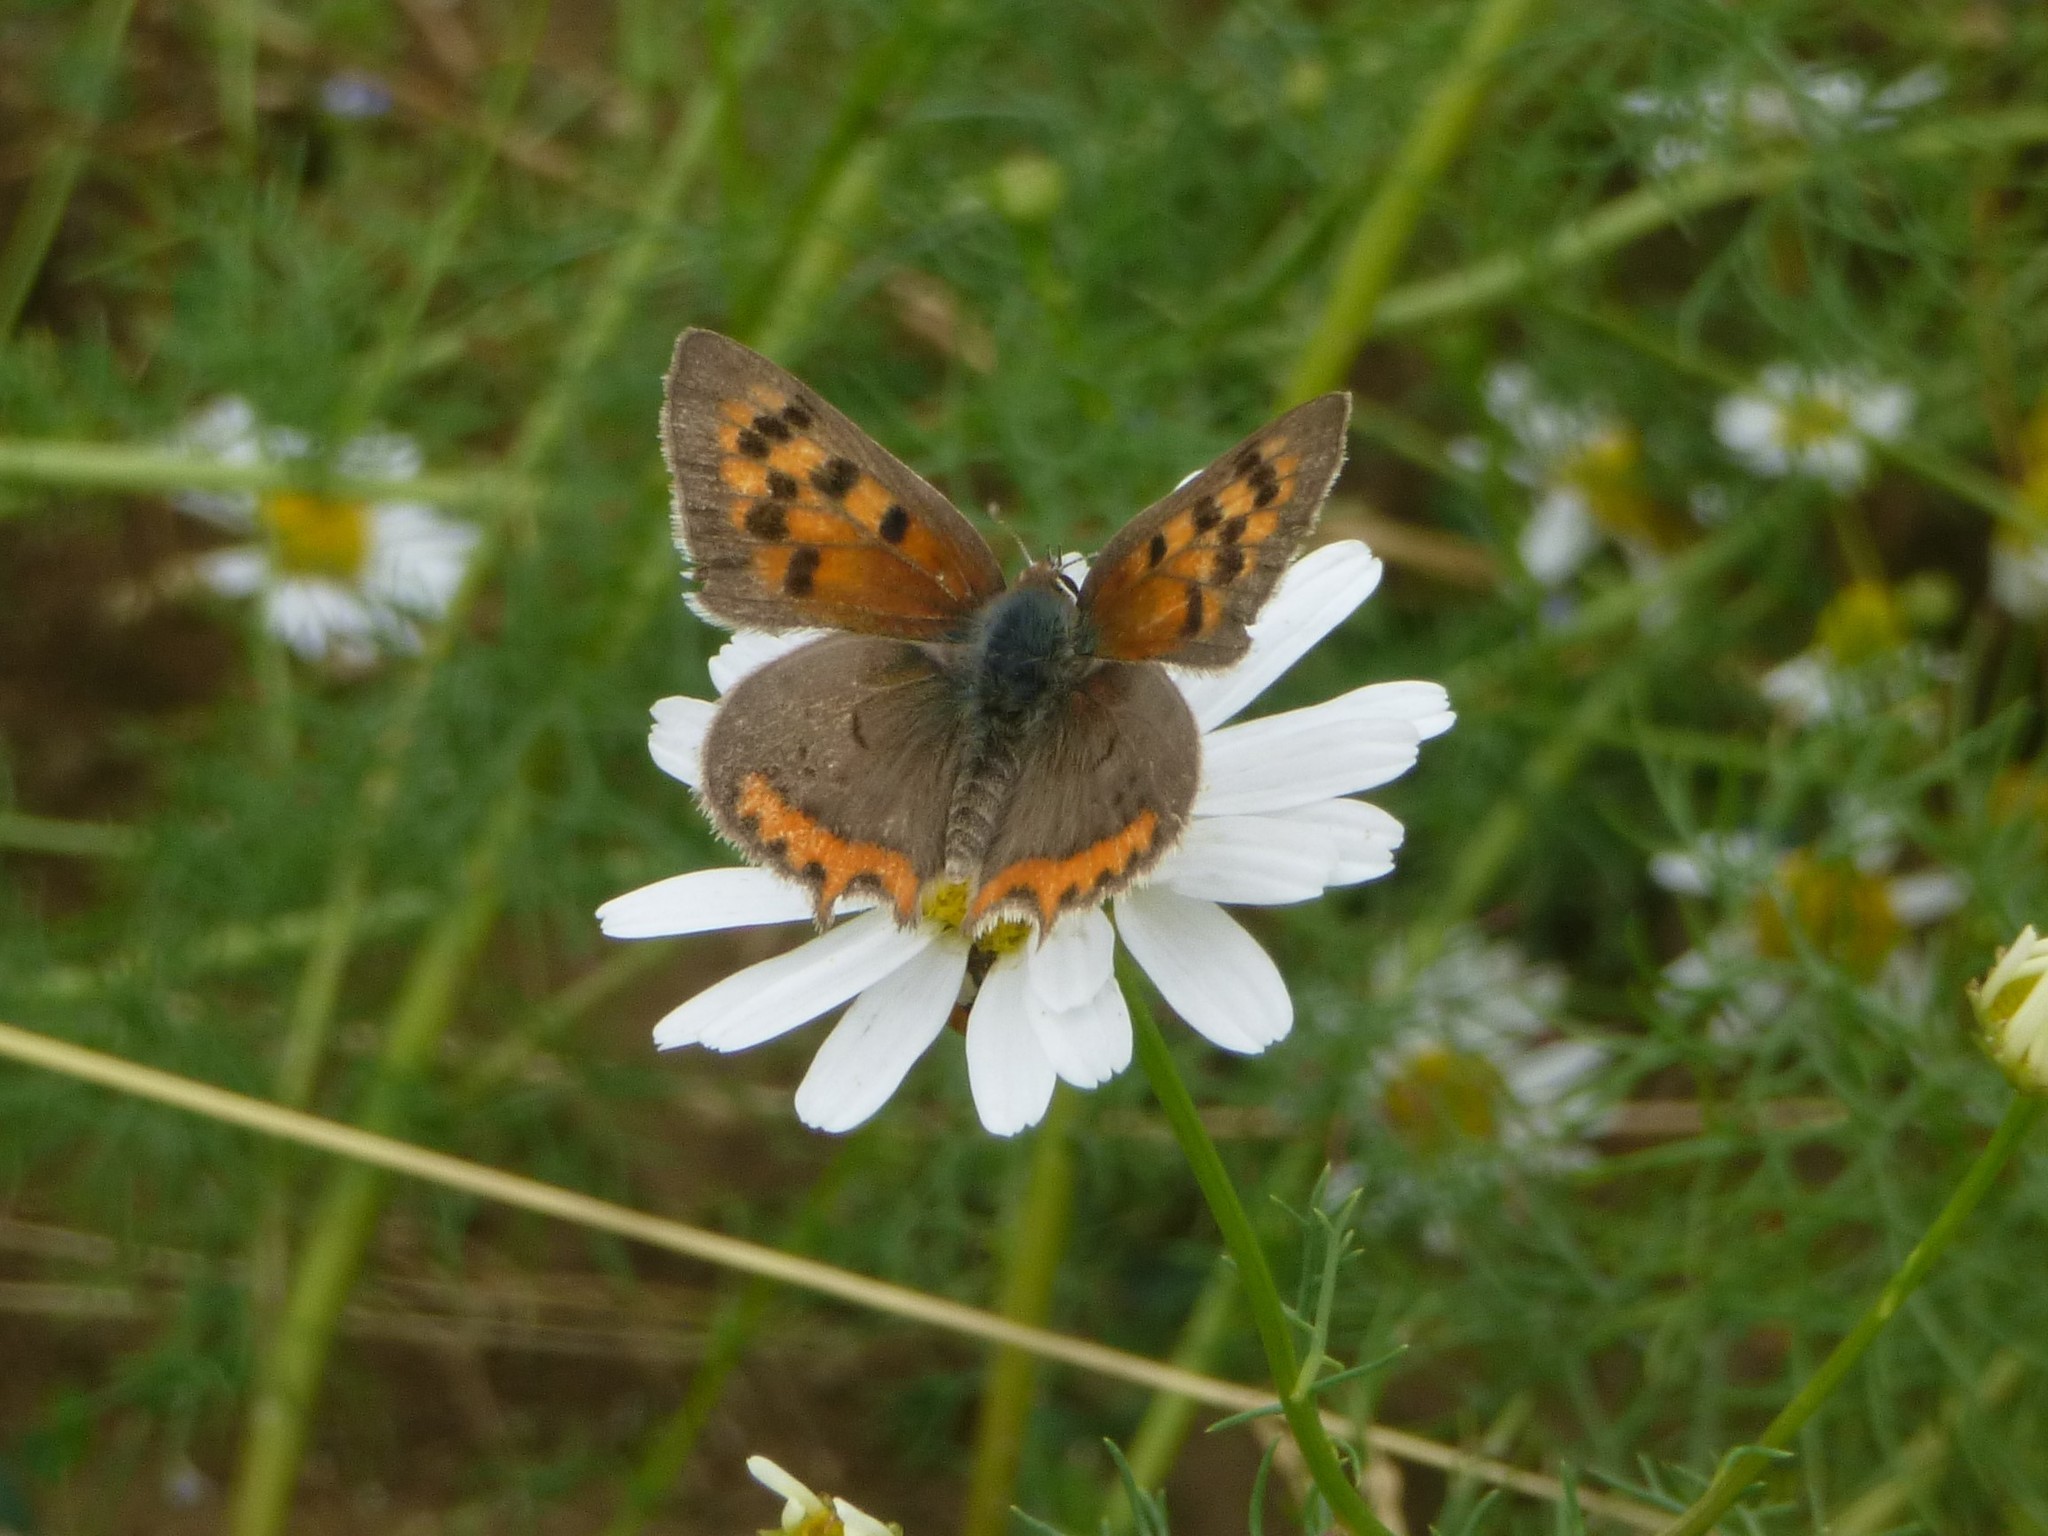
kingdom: Animalia
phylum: Arthropoda
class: Insecta
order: Lepidoptera
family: Lycaenidae
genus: Lycaena
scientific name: Lycaena phlaeas
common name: Small copper
